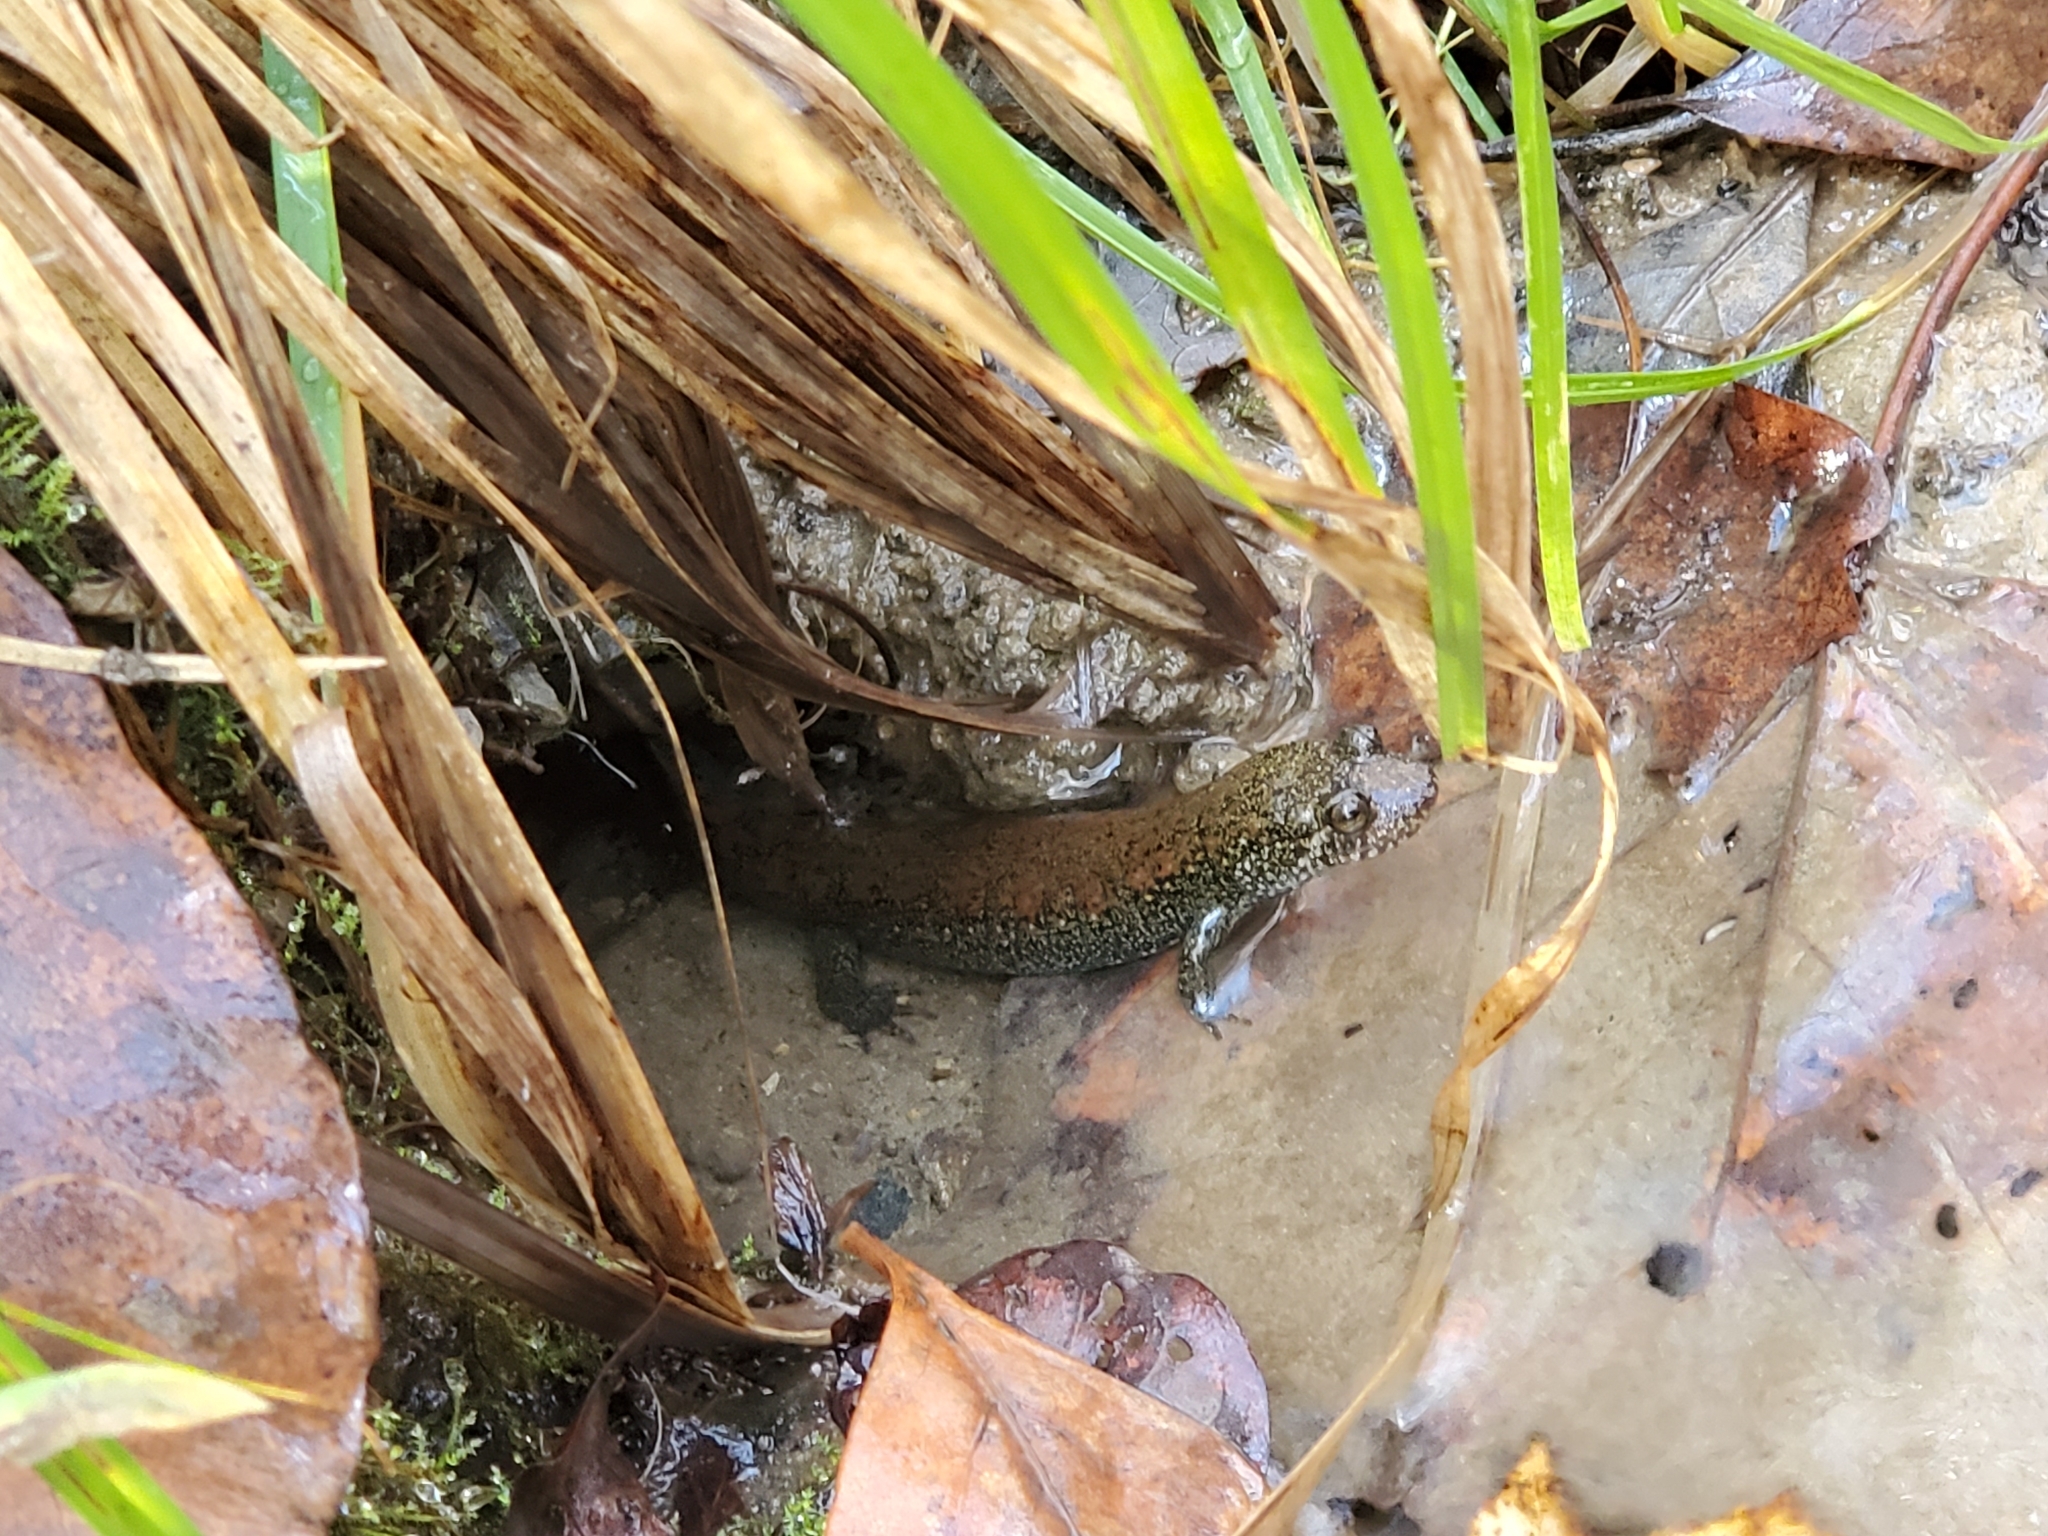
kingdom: Animalia
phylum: Chordata
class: Amphibia
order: Caudata
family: Plethodontidae
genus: Desmognathus
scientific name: Desmognathus
